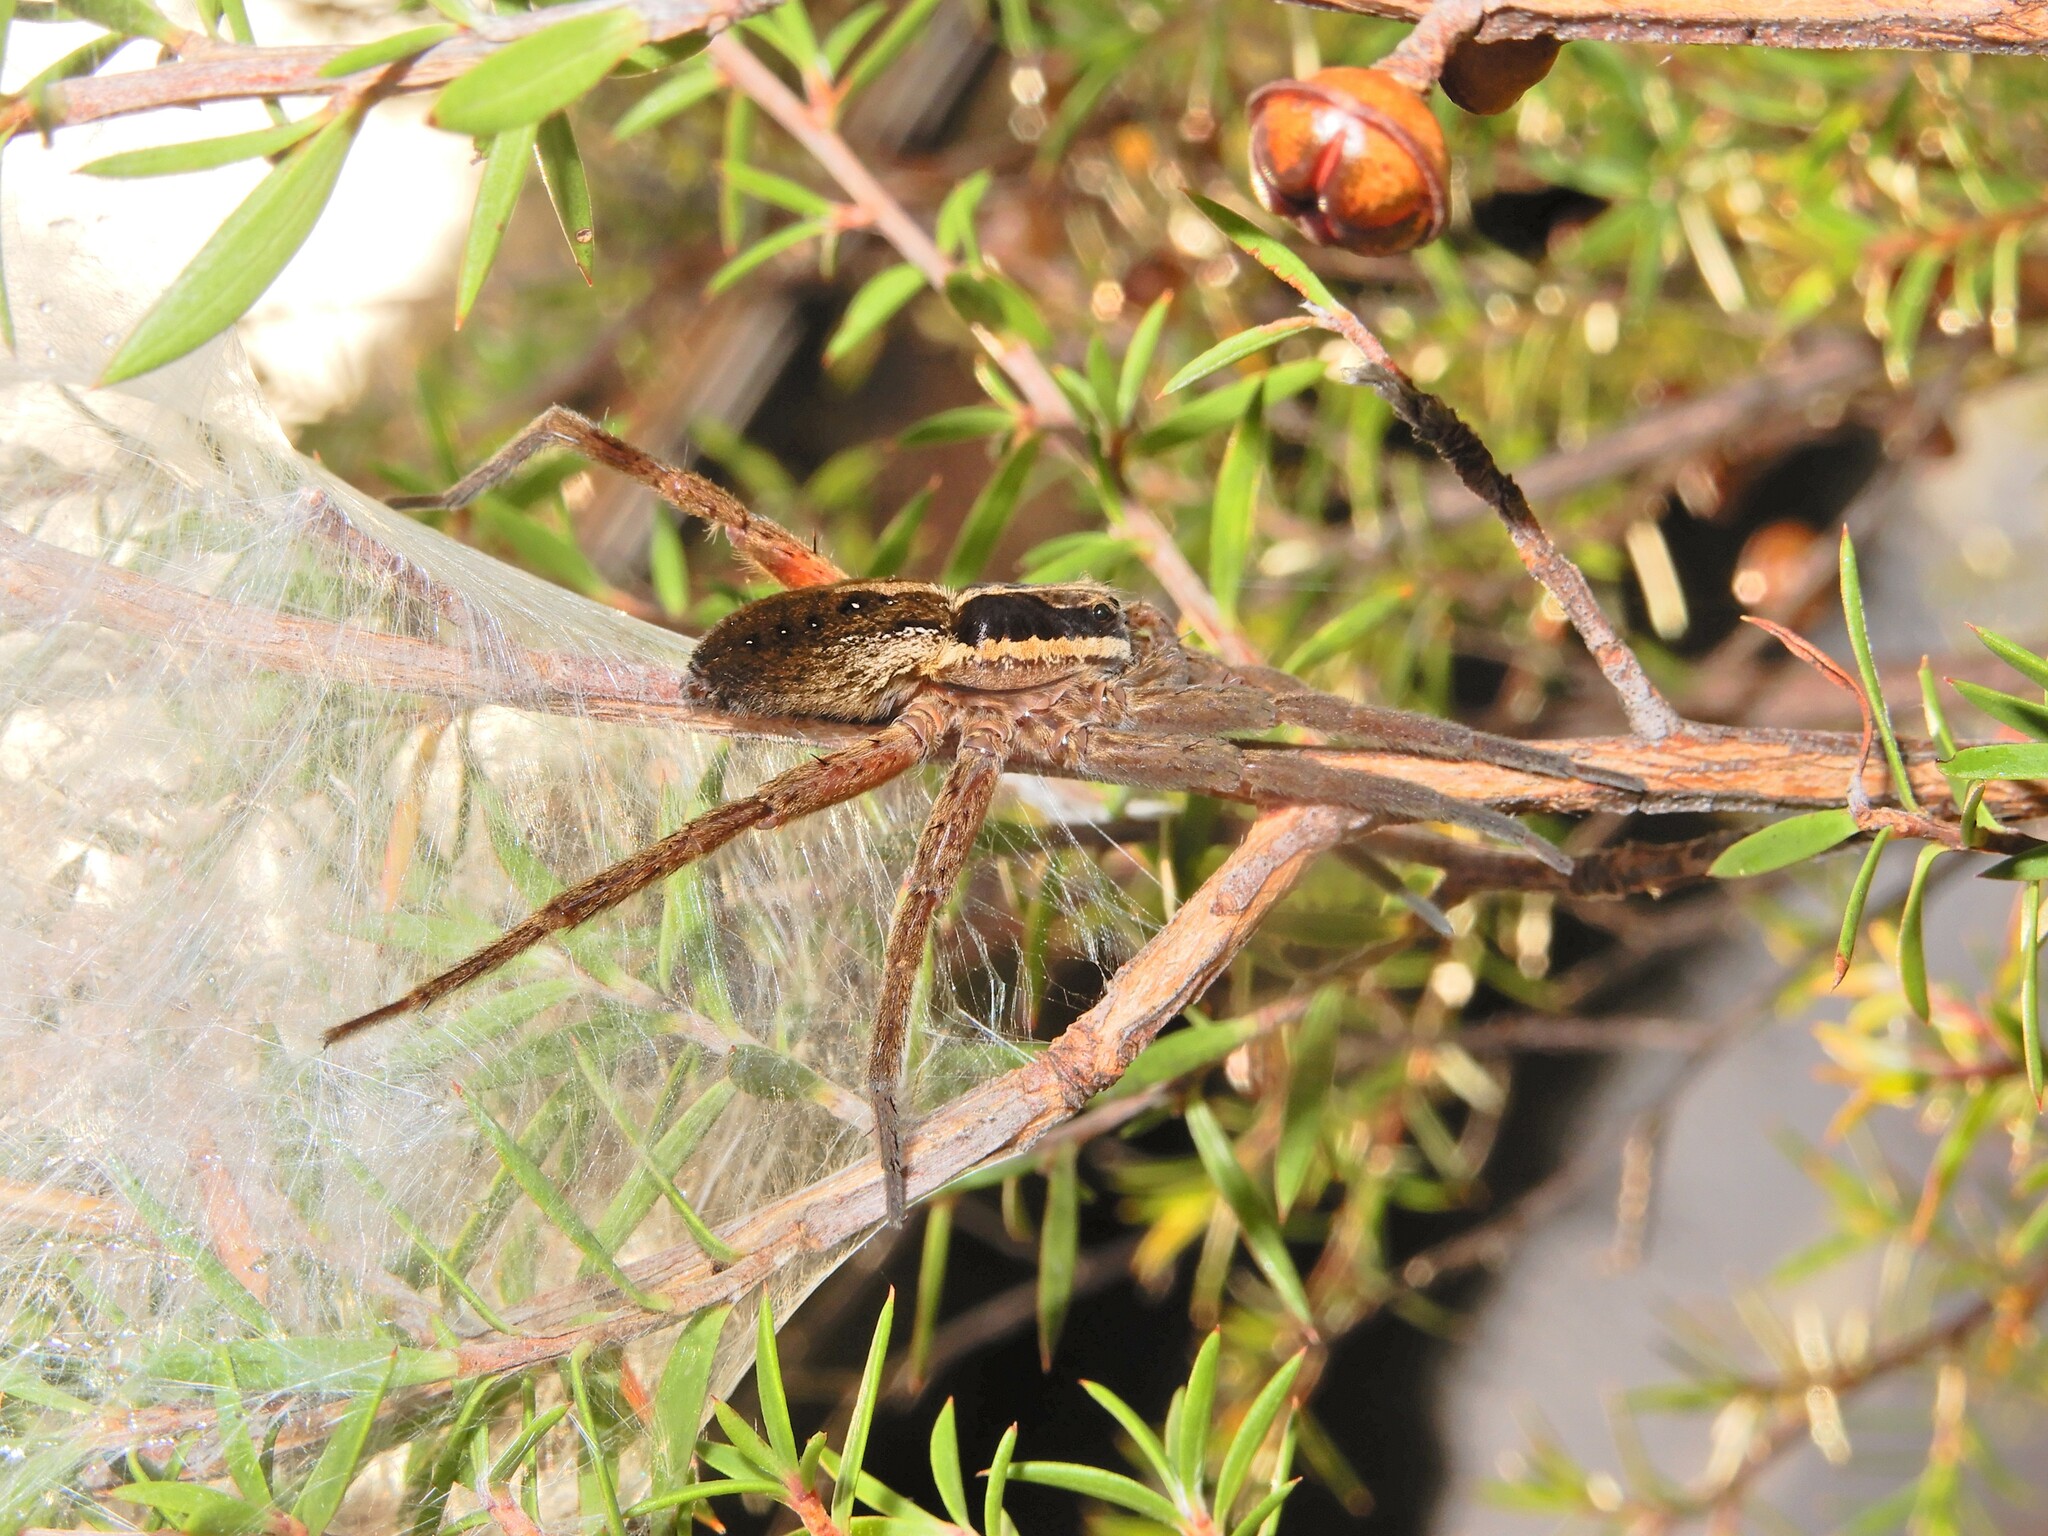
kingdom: Animalia
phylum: Arthropoda
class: Arachnida
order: Araneae
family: Pisauridae
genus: Dolomedes
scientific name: Dolomedes minor
